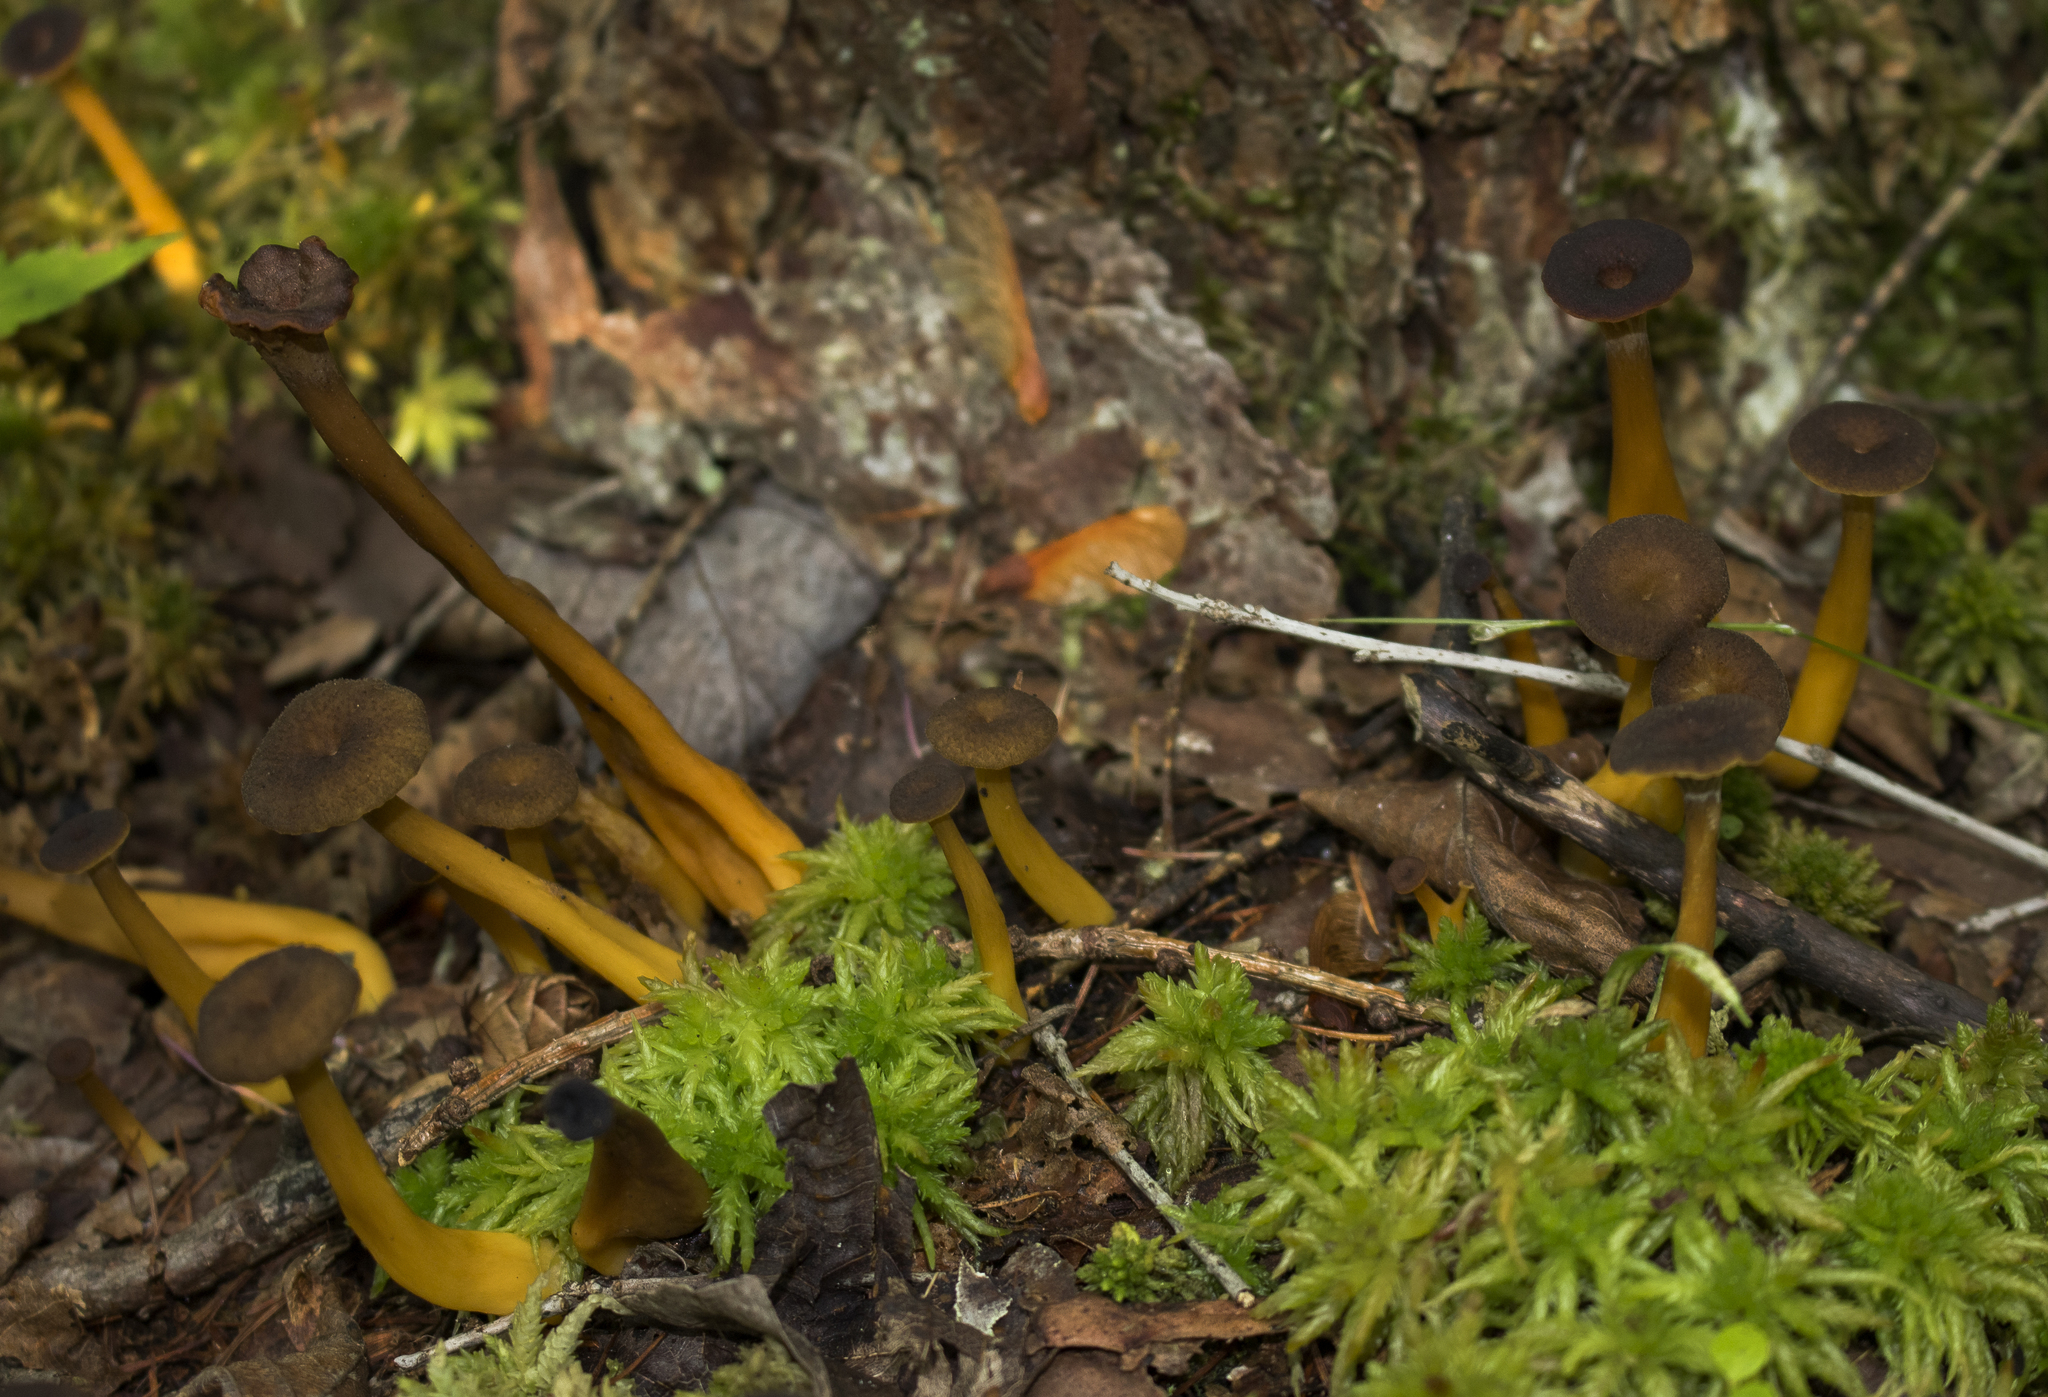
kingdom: Fungi
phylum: Basidiomycota
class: Agaricomycetes
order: Cantharellales
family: Hydnaceae
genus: Craterellus
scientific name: Craterellus tubaeformis
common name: Yellowfoot
